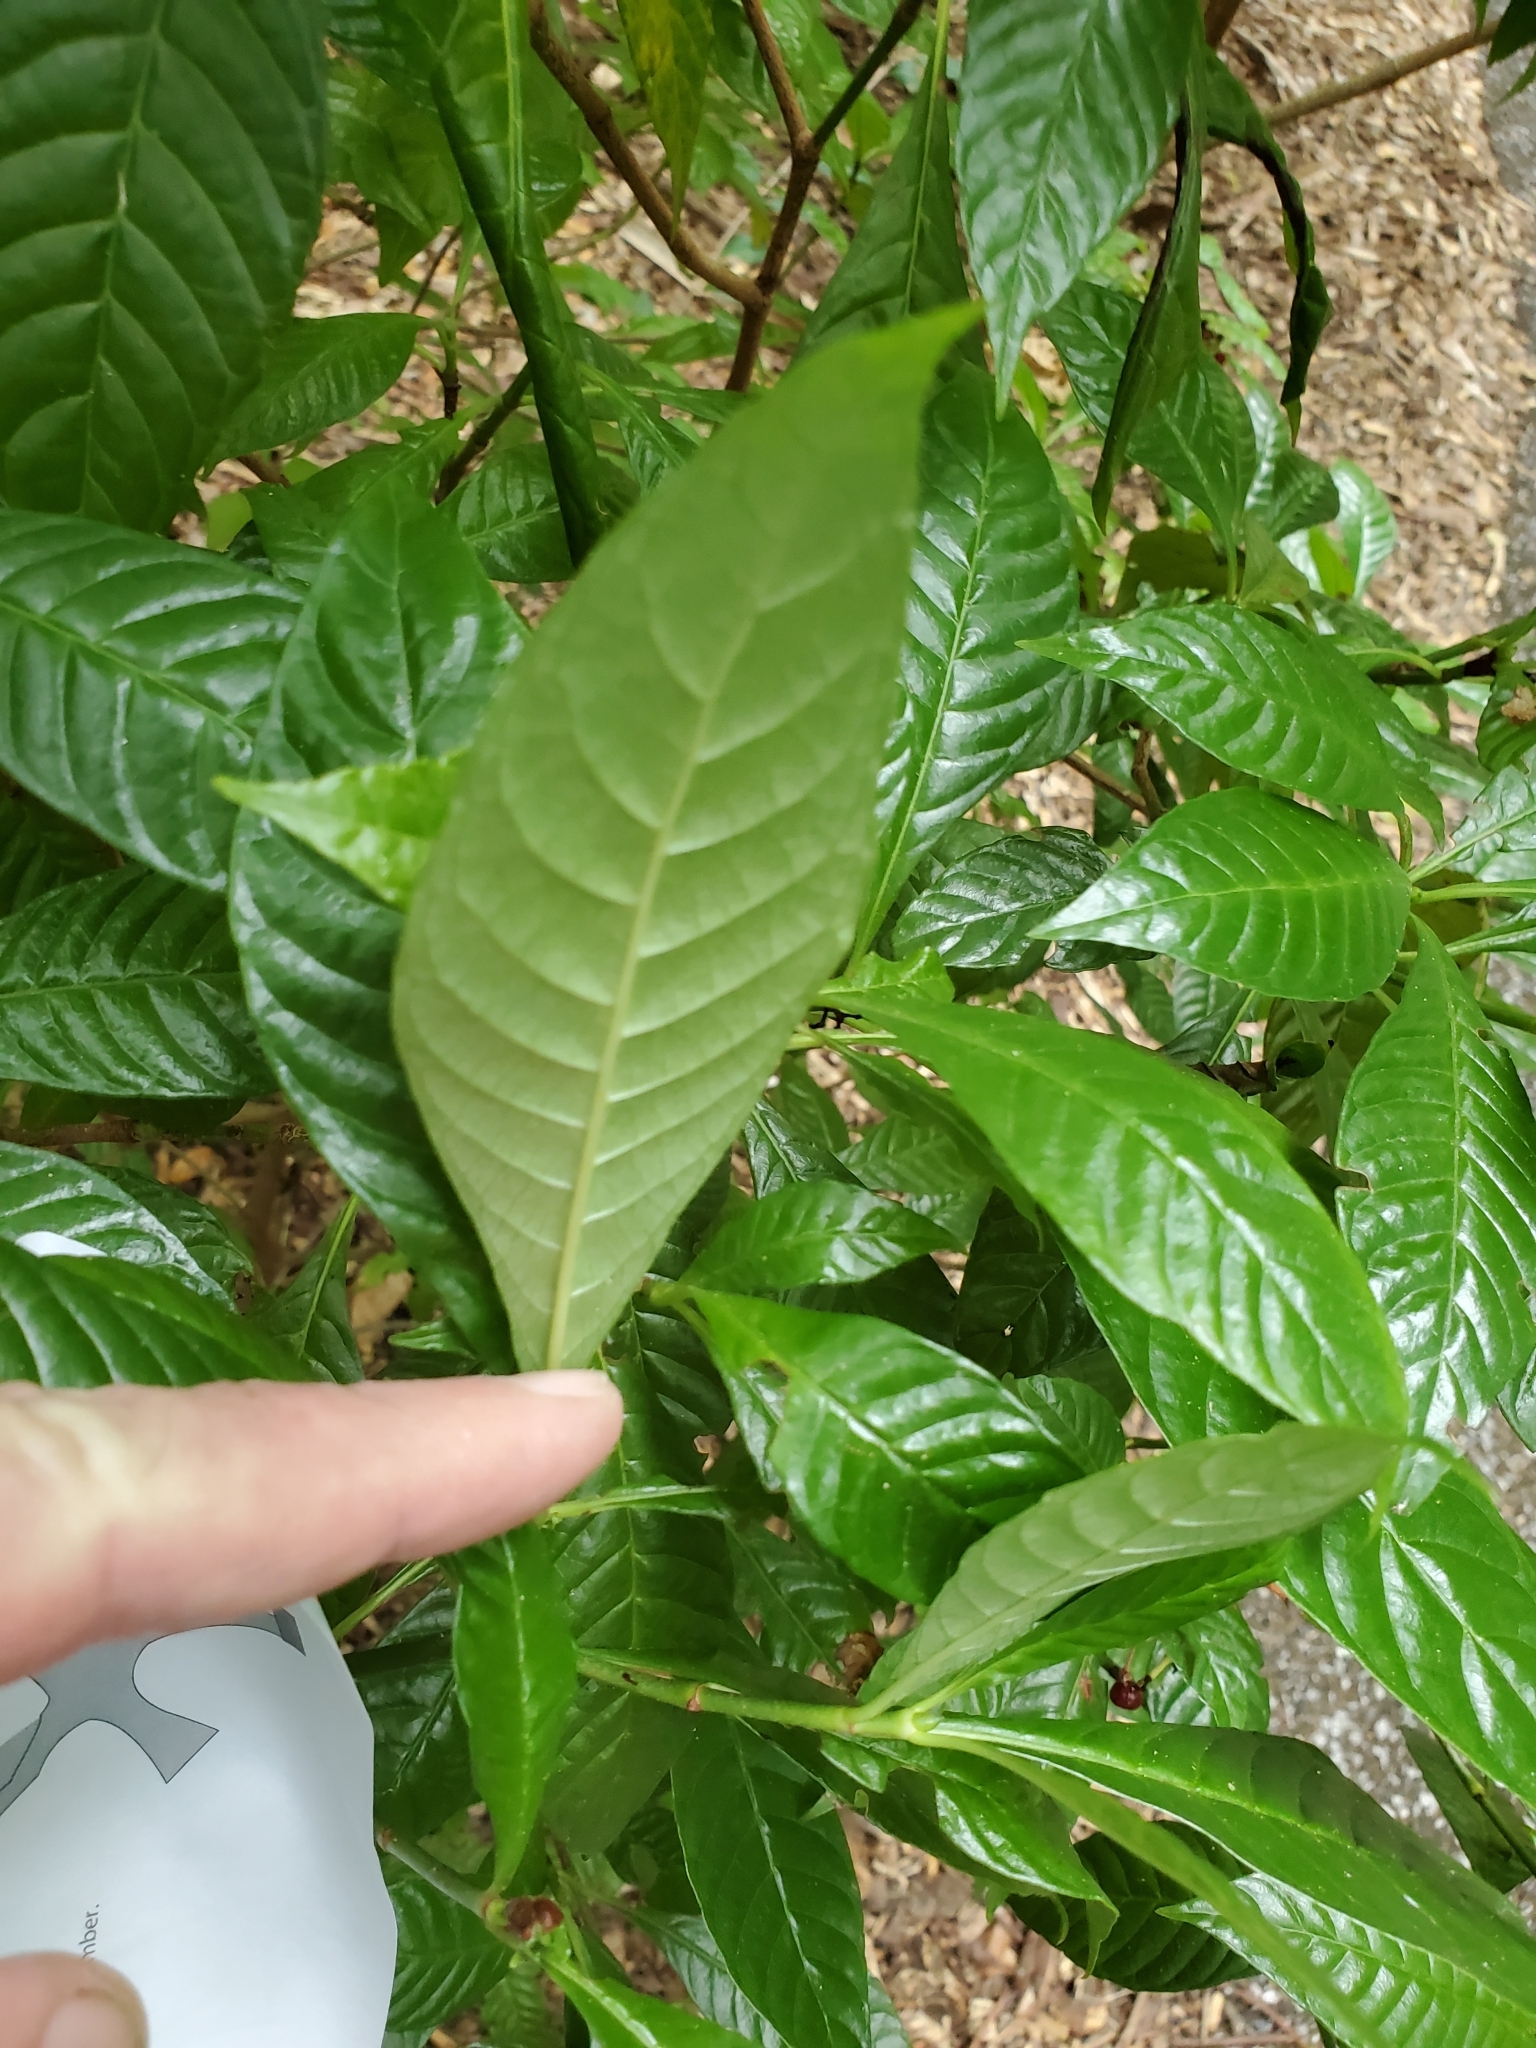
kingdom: Plantae
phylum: Tracheophyta
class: Magnoliopsida
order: Gentianales
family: Rubiaceae
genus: Psychotria
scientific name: Psychotria nervosa
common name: Bastard cankerberry
